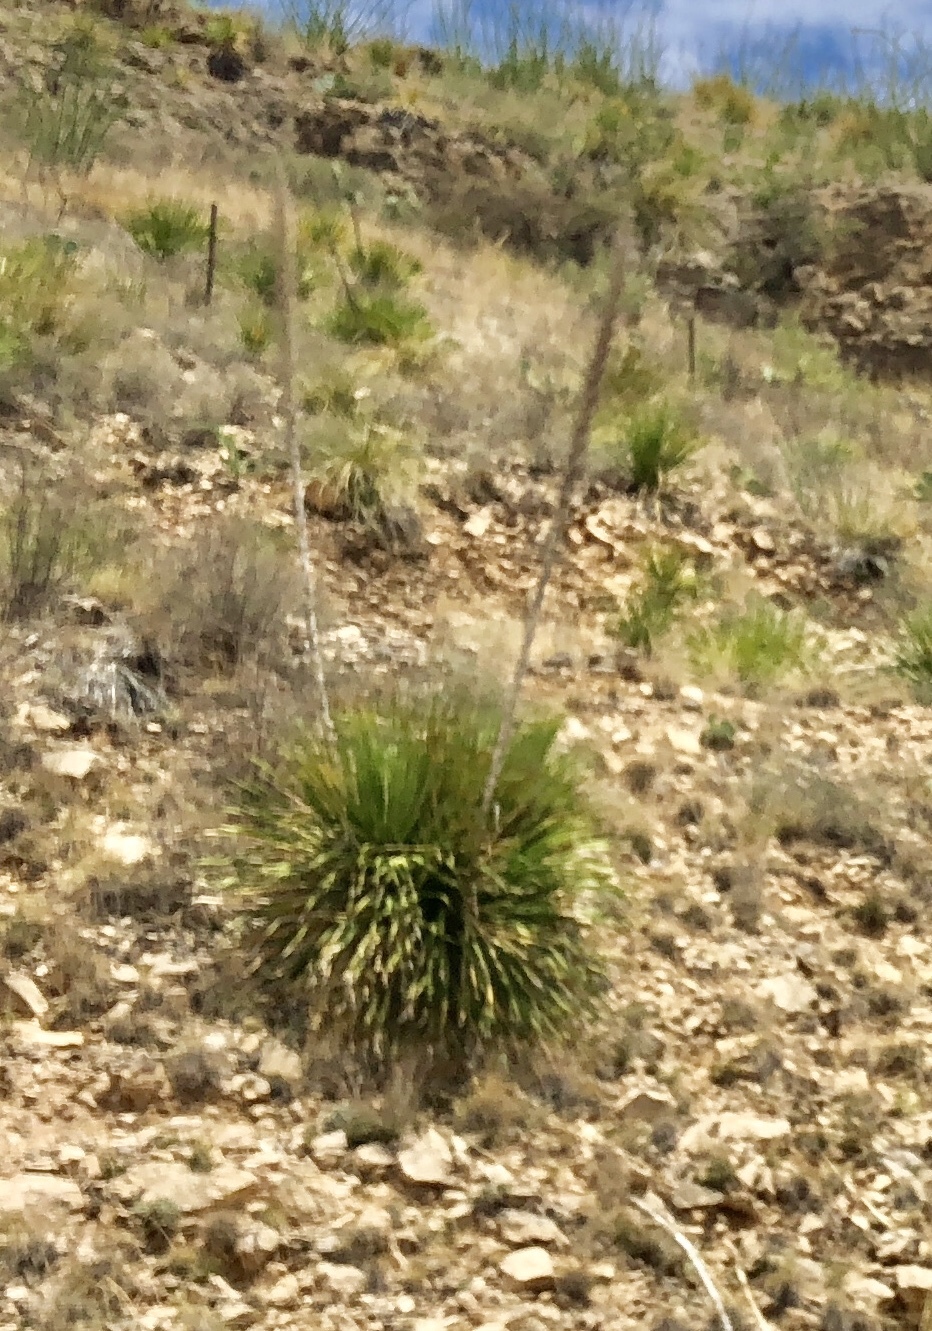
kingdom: Plantae
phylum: Tracheophyta
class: Liliopsida
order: Asparagales
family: Asparagaceae
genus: Dasylirion
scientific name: Dasylirion wheeleri
